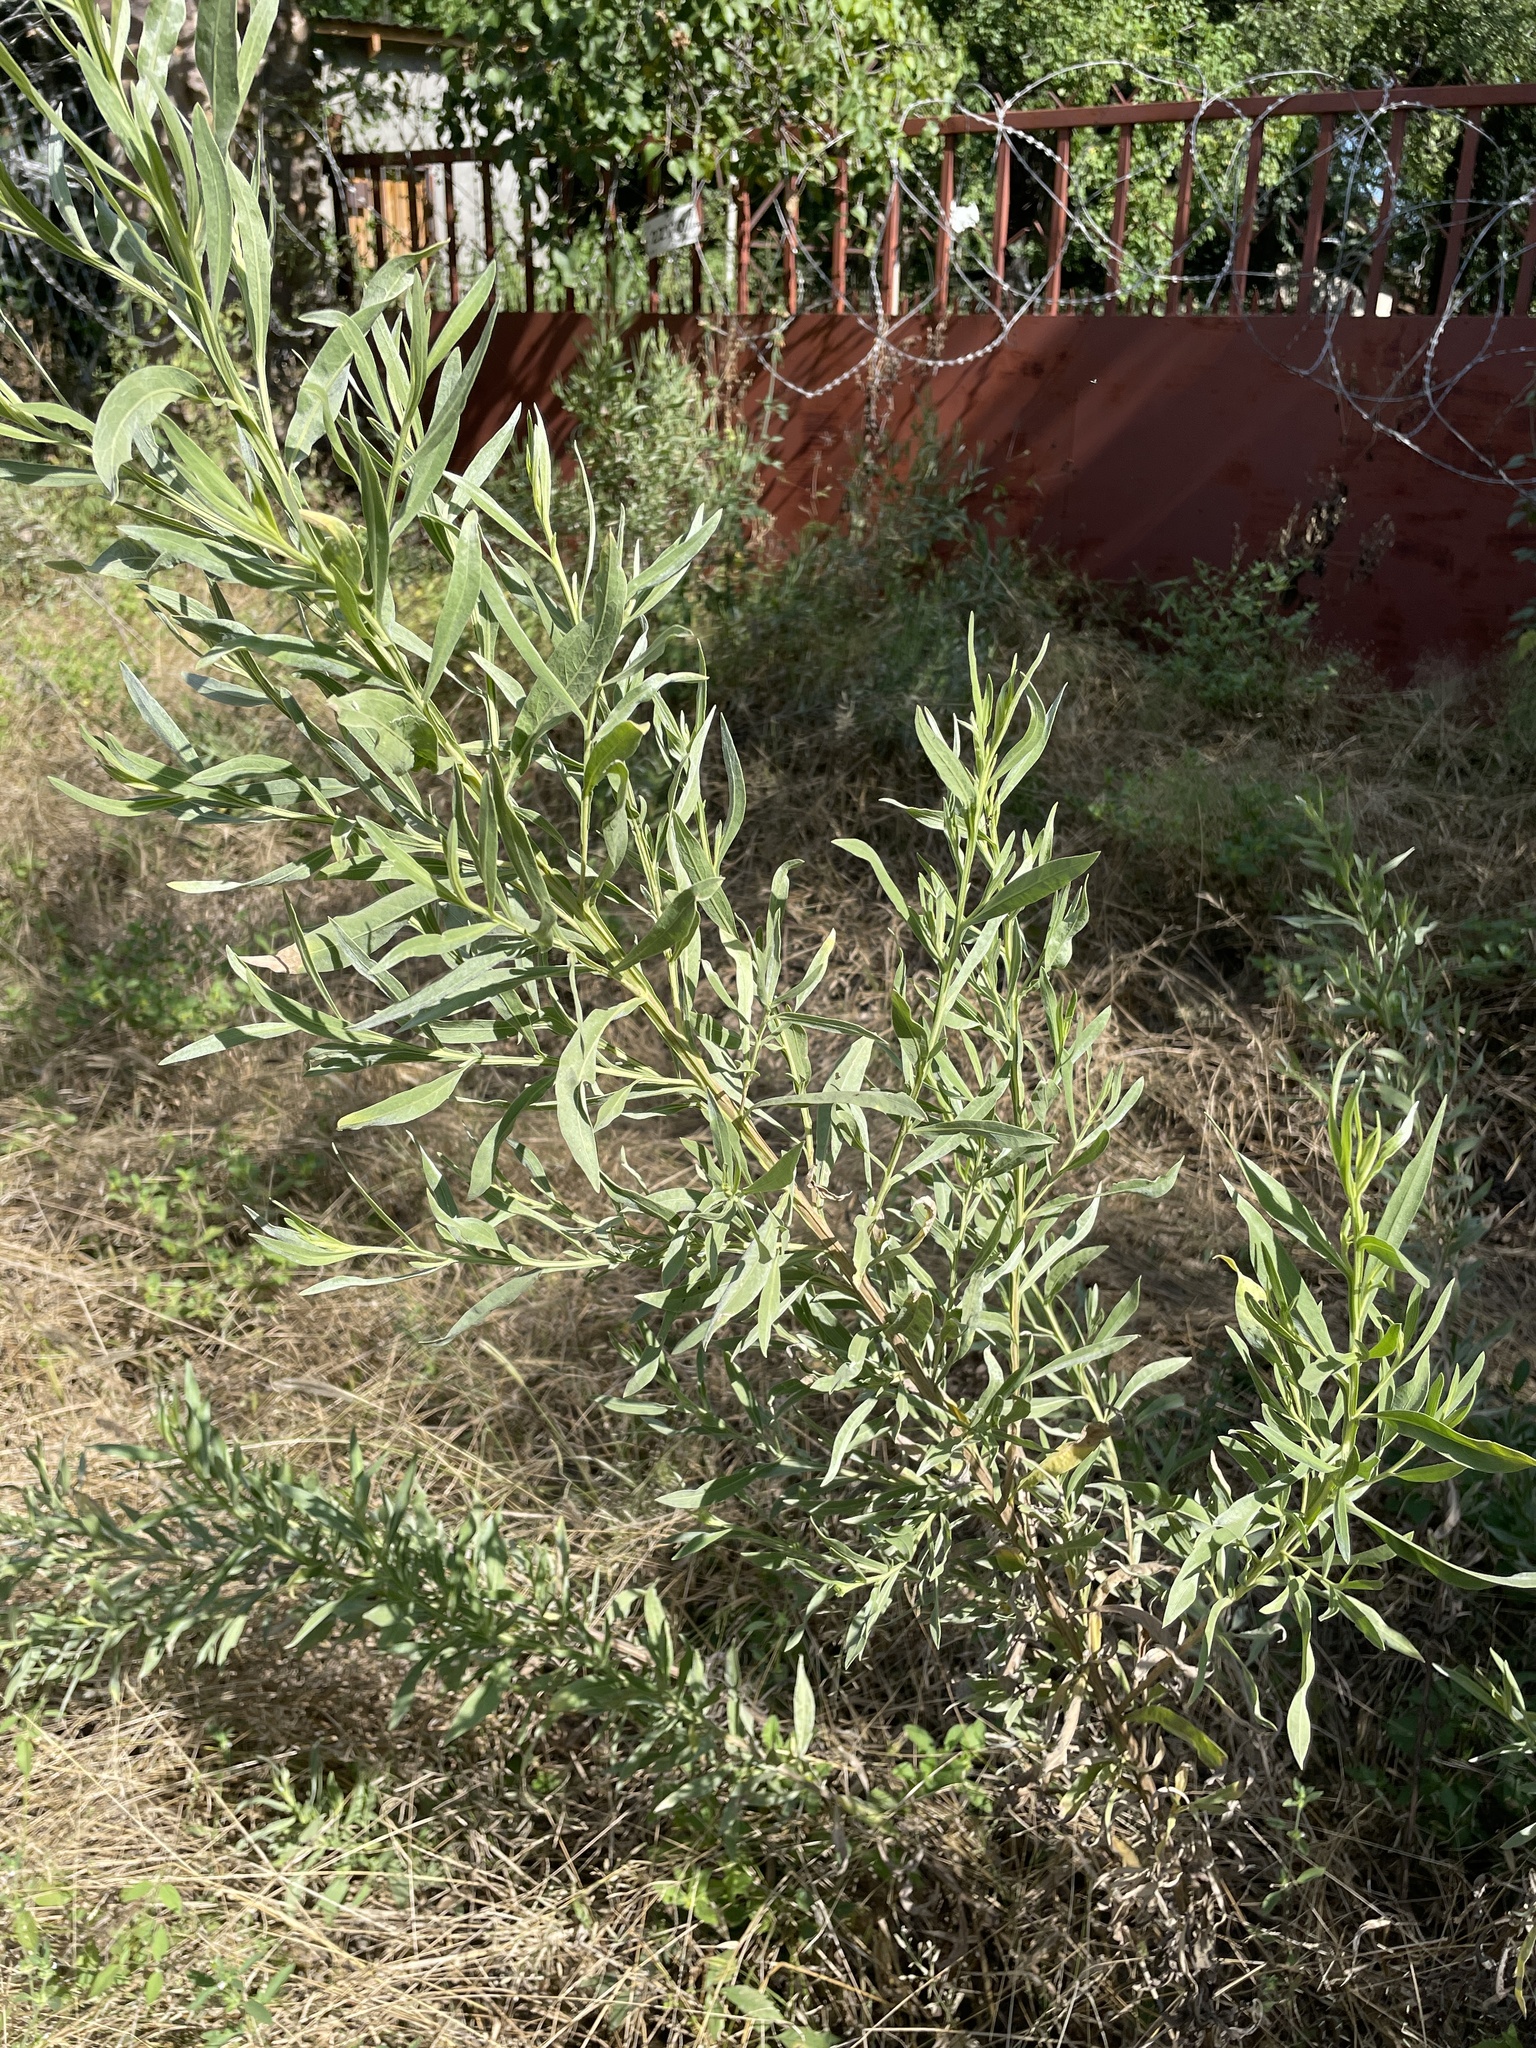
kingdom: Plantae
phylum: Tracheophyta
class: Magnoliopsida
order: Asterales
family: Asteraceae
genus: Pechuel-loeschea
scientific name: Pechuel-loeschea leubnitziae
